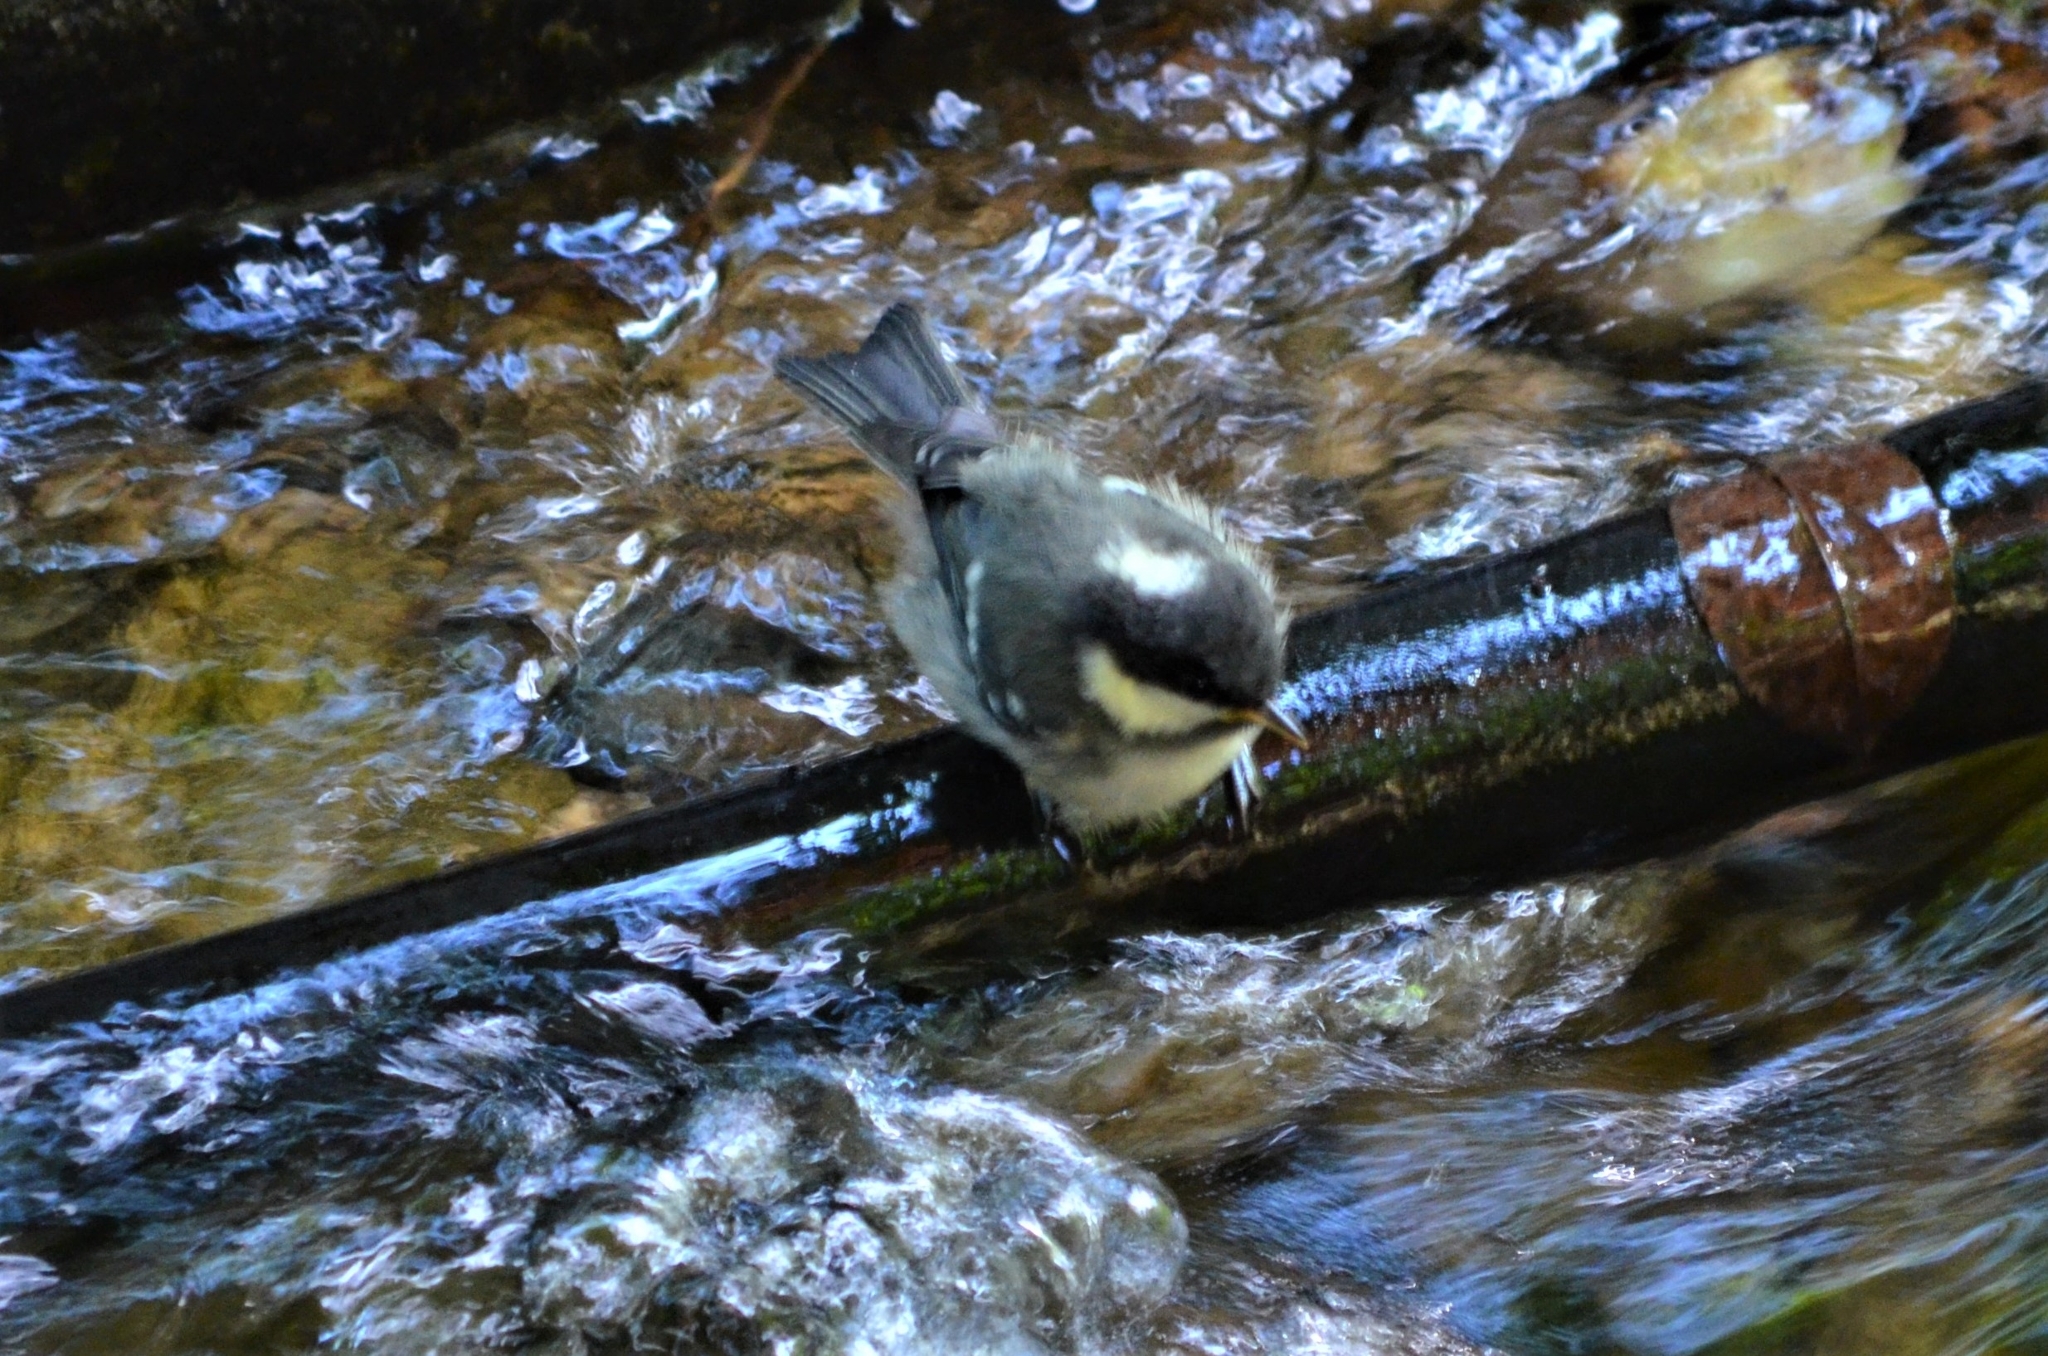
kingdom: Animalia
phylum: Chordata
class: Aves
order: Passeriformes
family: Paridae
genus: Periparus
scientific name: Periparus ater
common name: Coal tit
